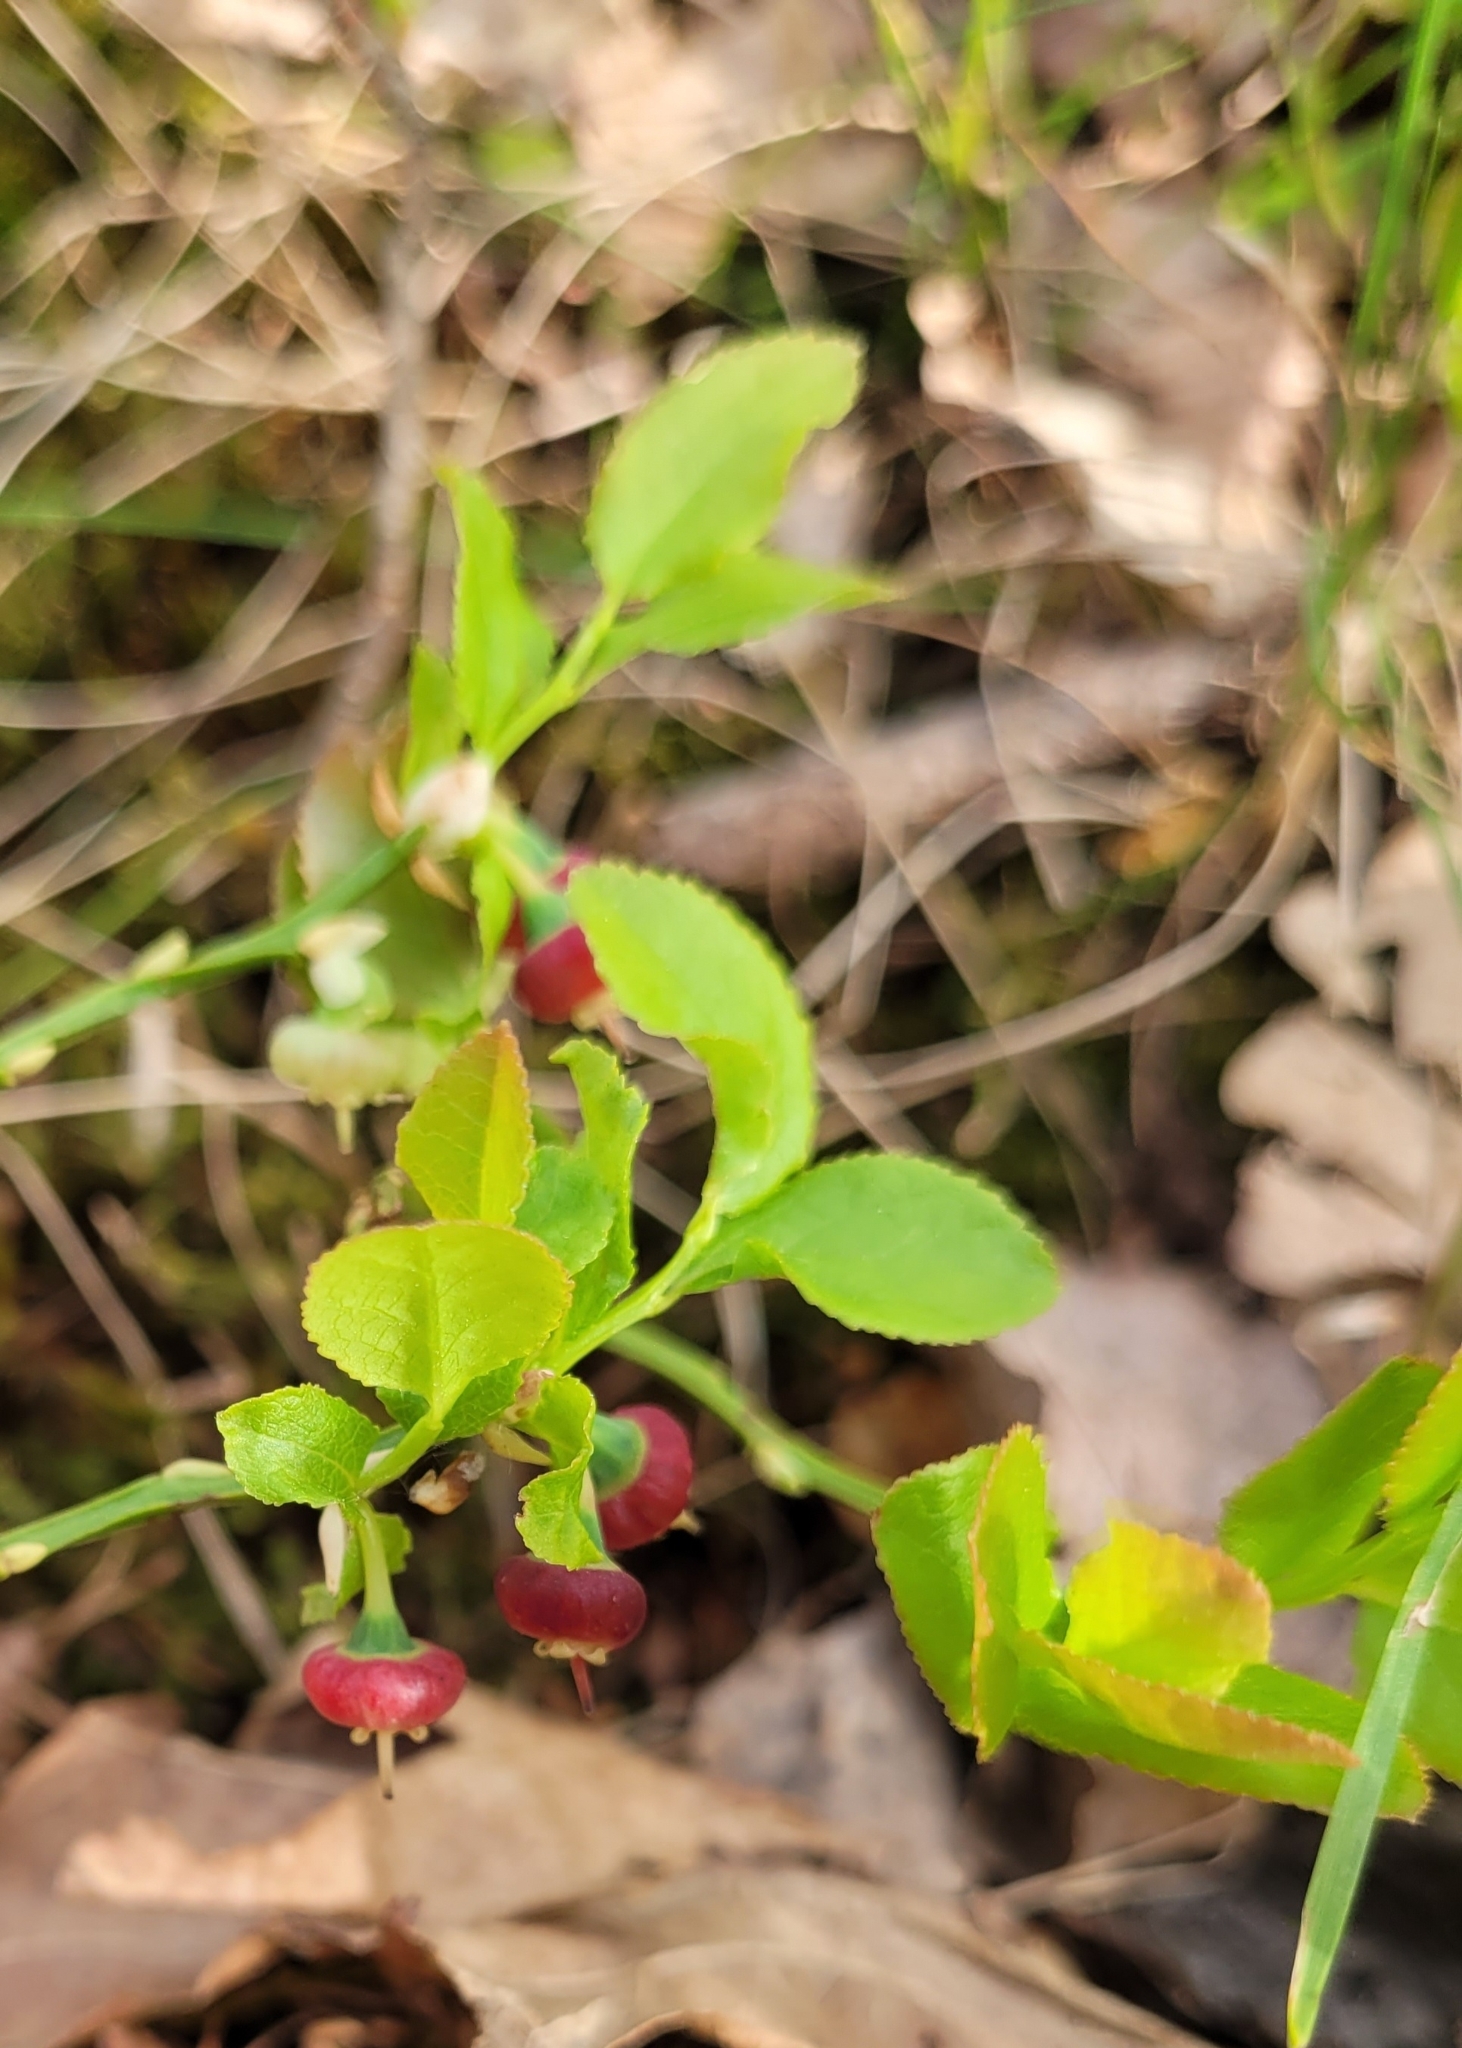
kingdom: Plantae
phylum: Tracheophyta
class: Magnoliopsida
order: Ericales
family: Ericaceae
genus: Vaccinium
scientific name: Vaccinium myrtillus
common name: Bilberry
